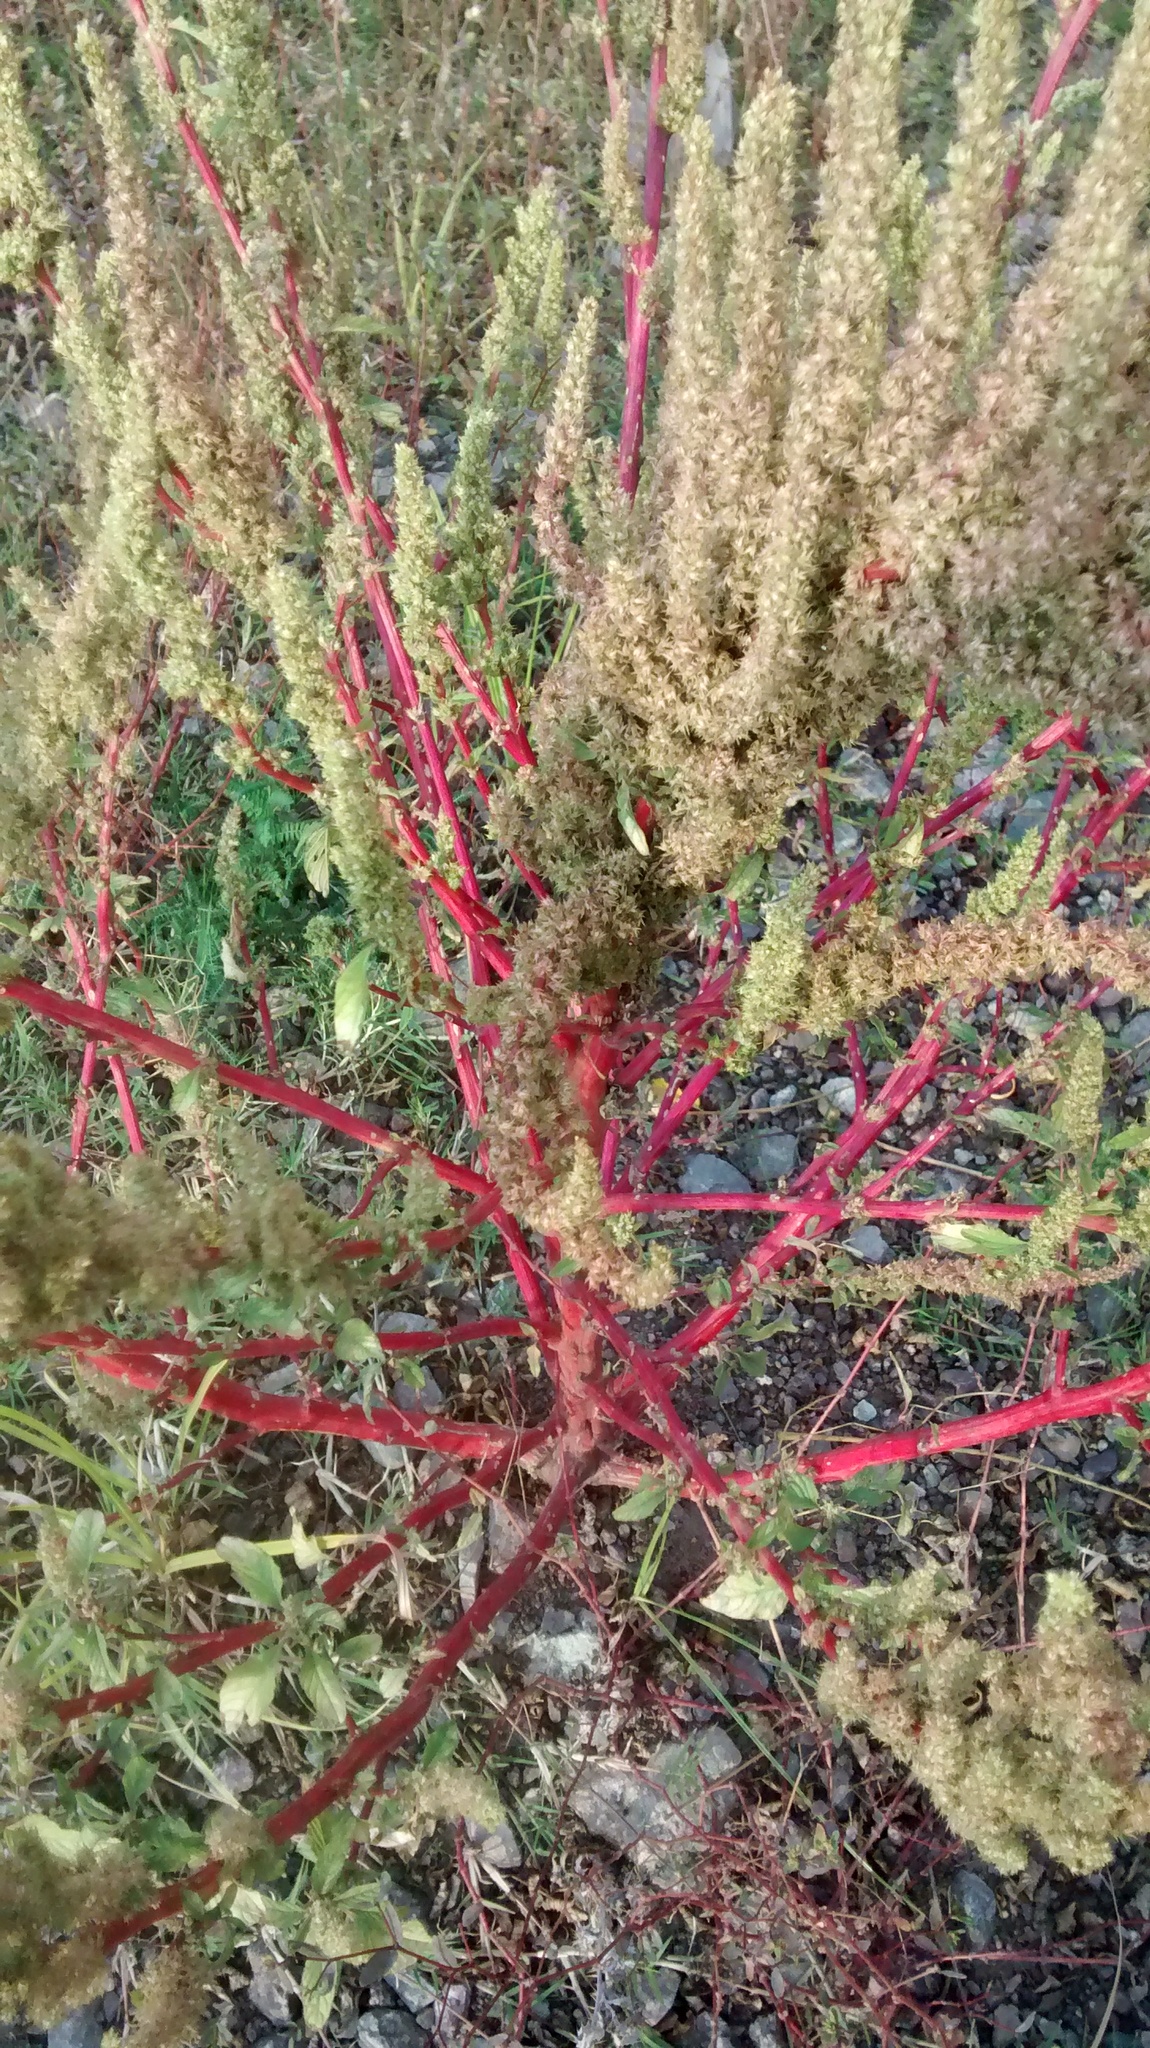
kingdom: Plantae
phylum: Tracheophyta
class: Magnoliopsida
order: Caryophyllales
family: Amaranthaceae
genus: Amaranthus
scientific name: Amaranthus hybridus
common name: Green amaranth
